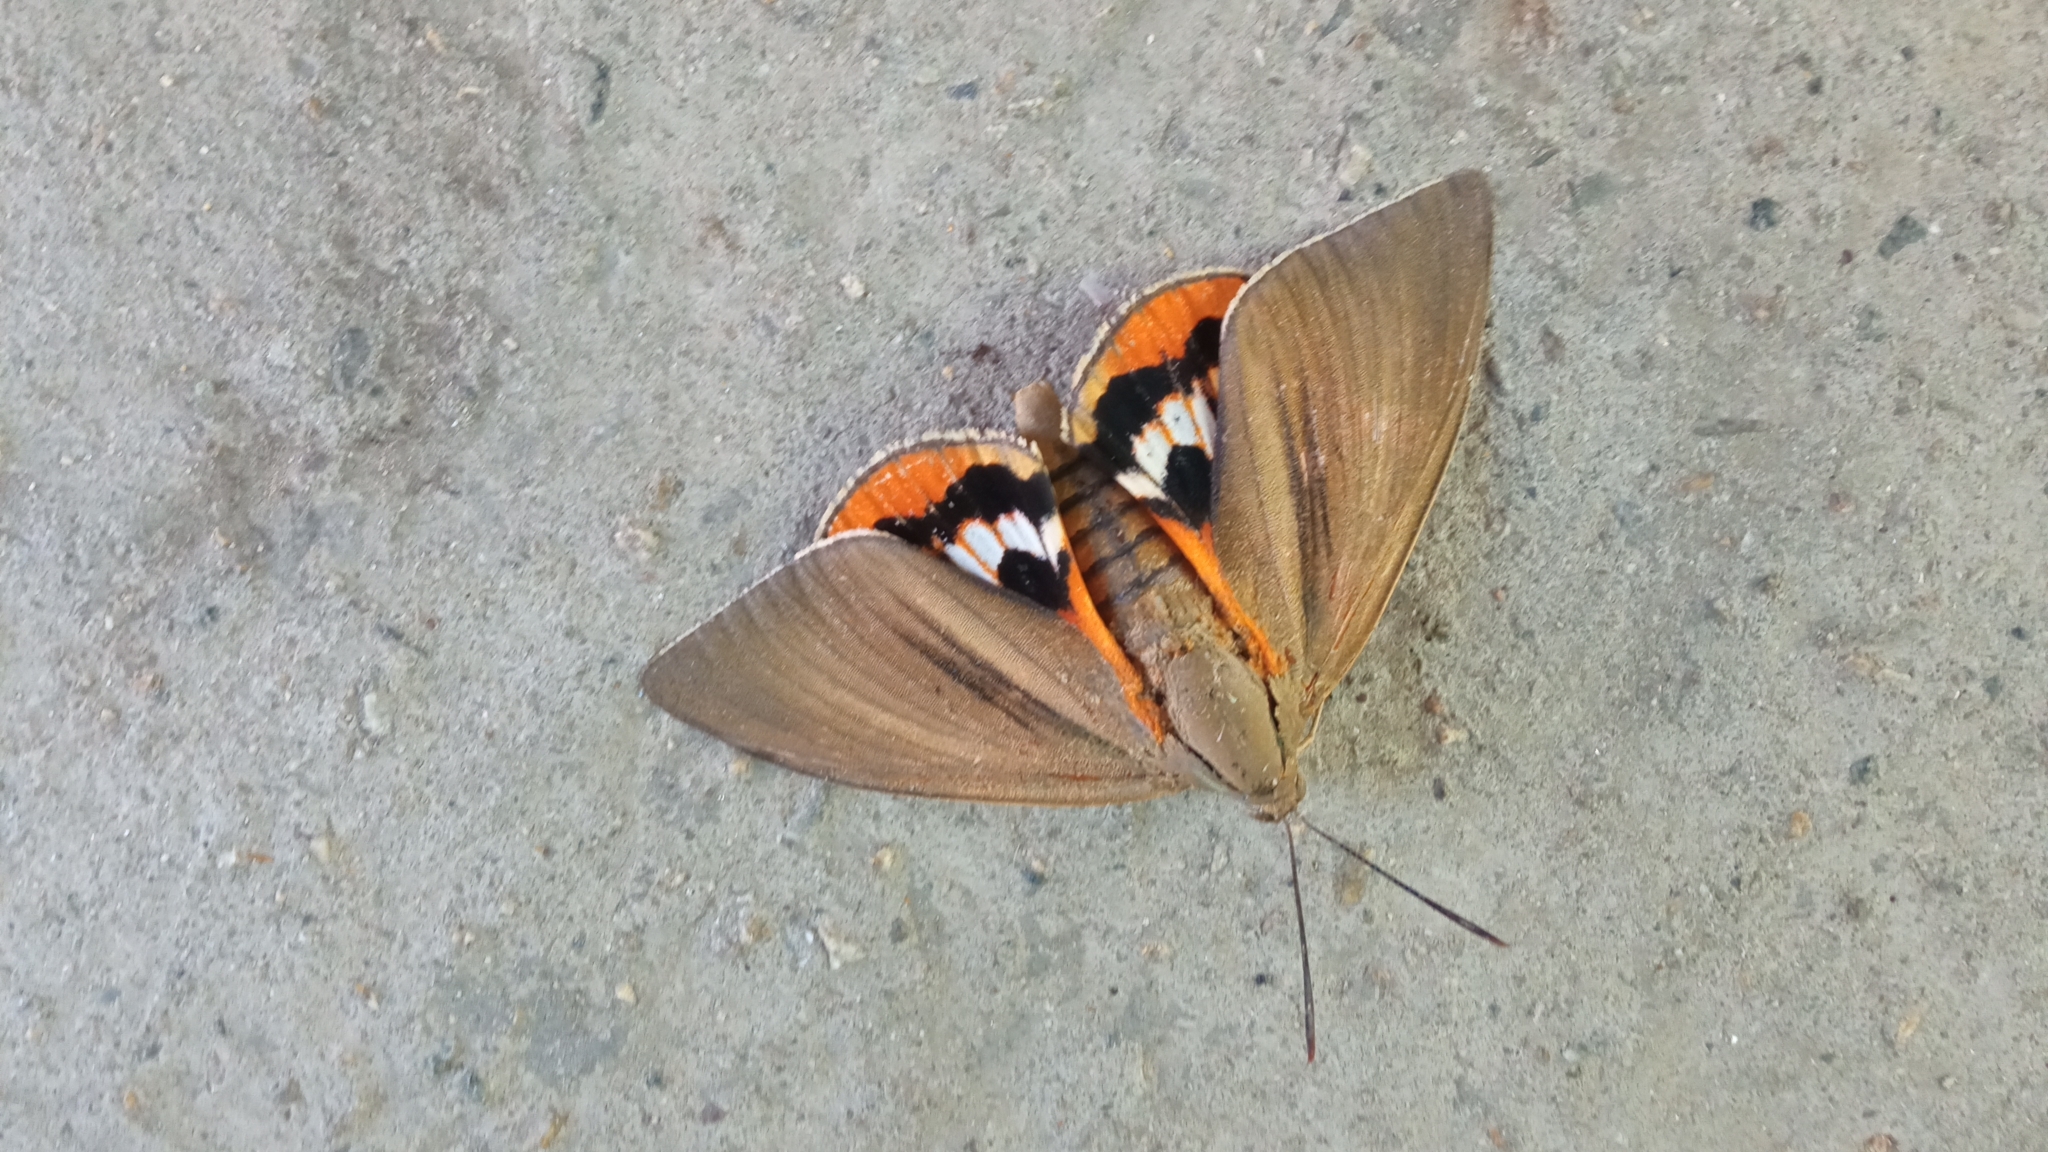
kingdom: Animalia
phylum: Arthropoda
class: Insecta
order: Lepidoptera
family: Castniidae
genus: Paysandisia
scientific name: Paysandisia archon
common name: Palm moth
